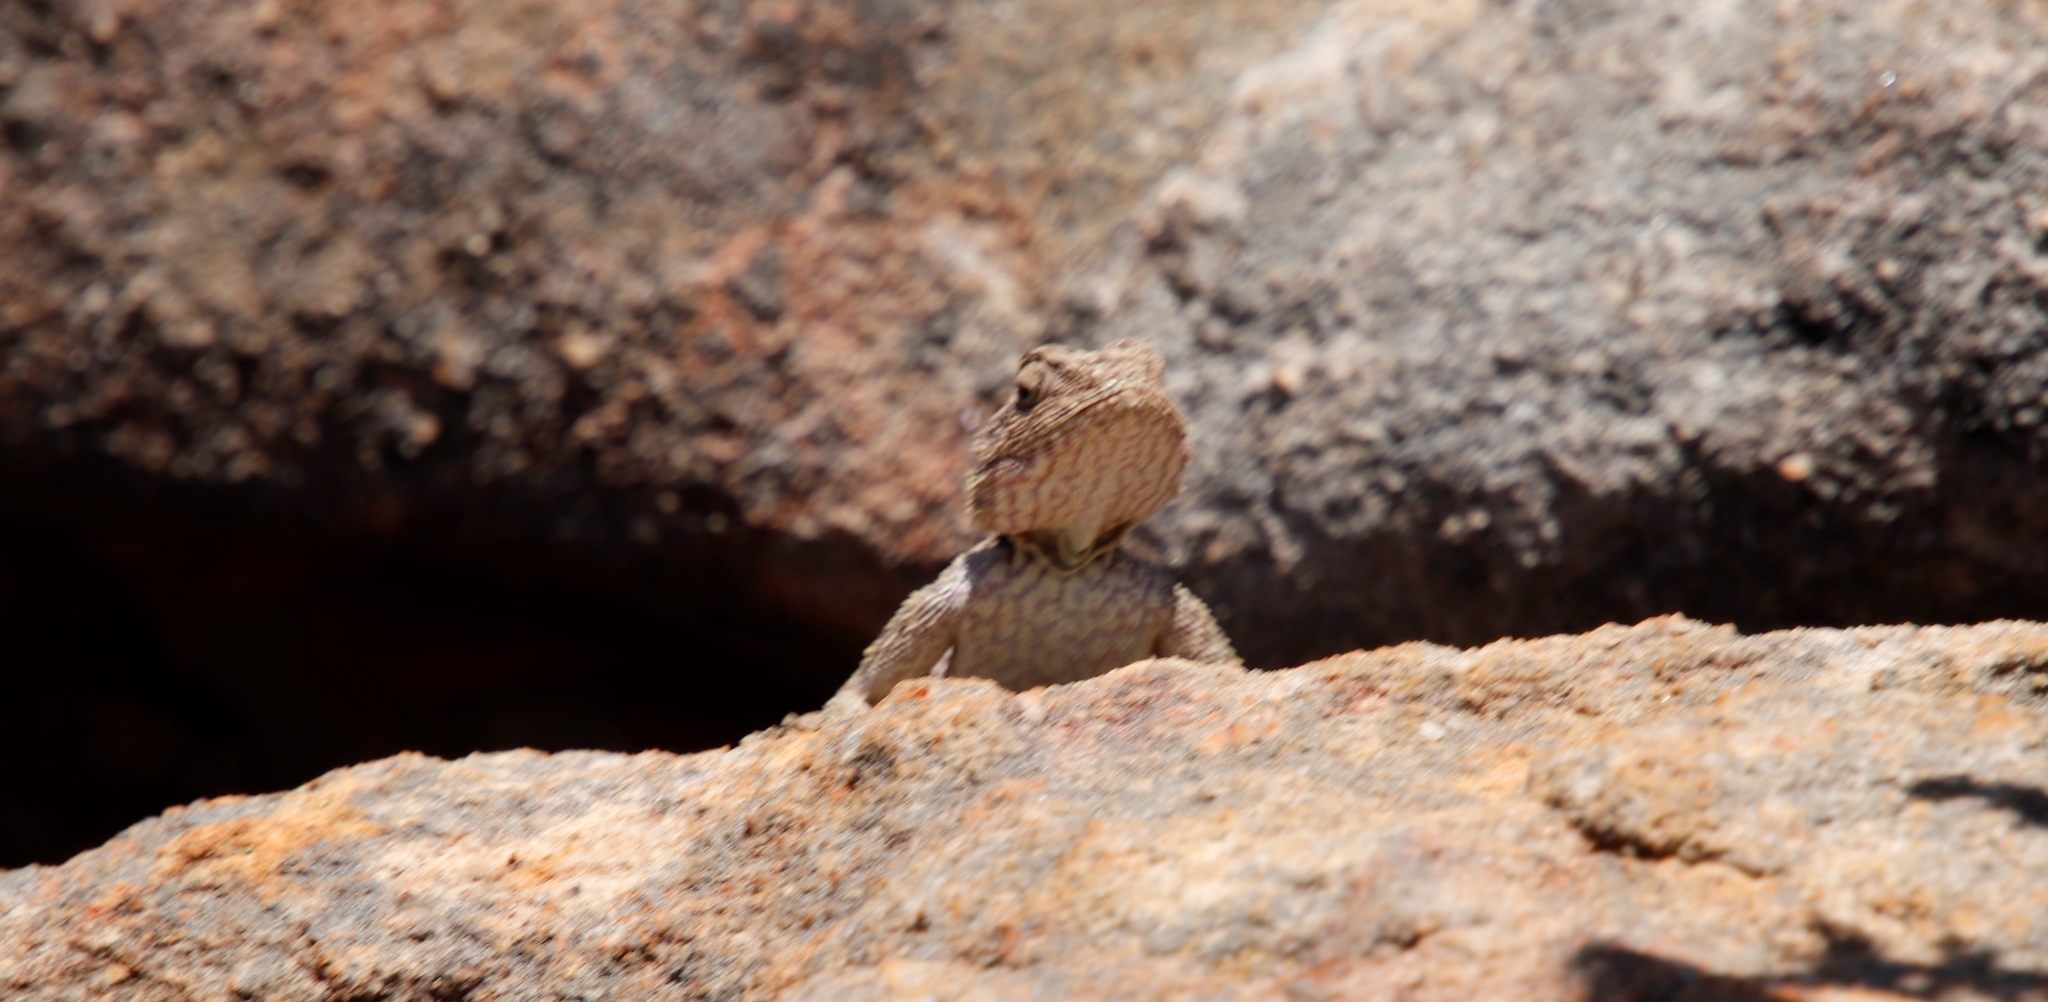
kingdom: Animalia
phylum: Chordata
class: Squamata
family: Agamidae
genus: Agama
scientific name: Agama atra
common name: Southern african rock agama
